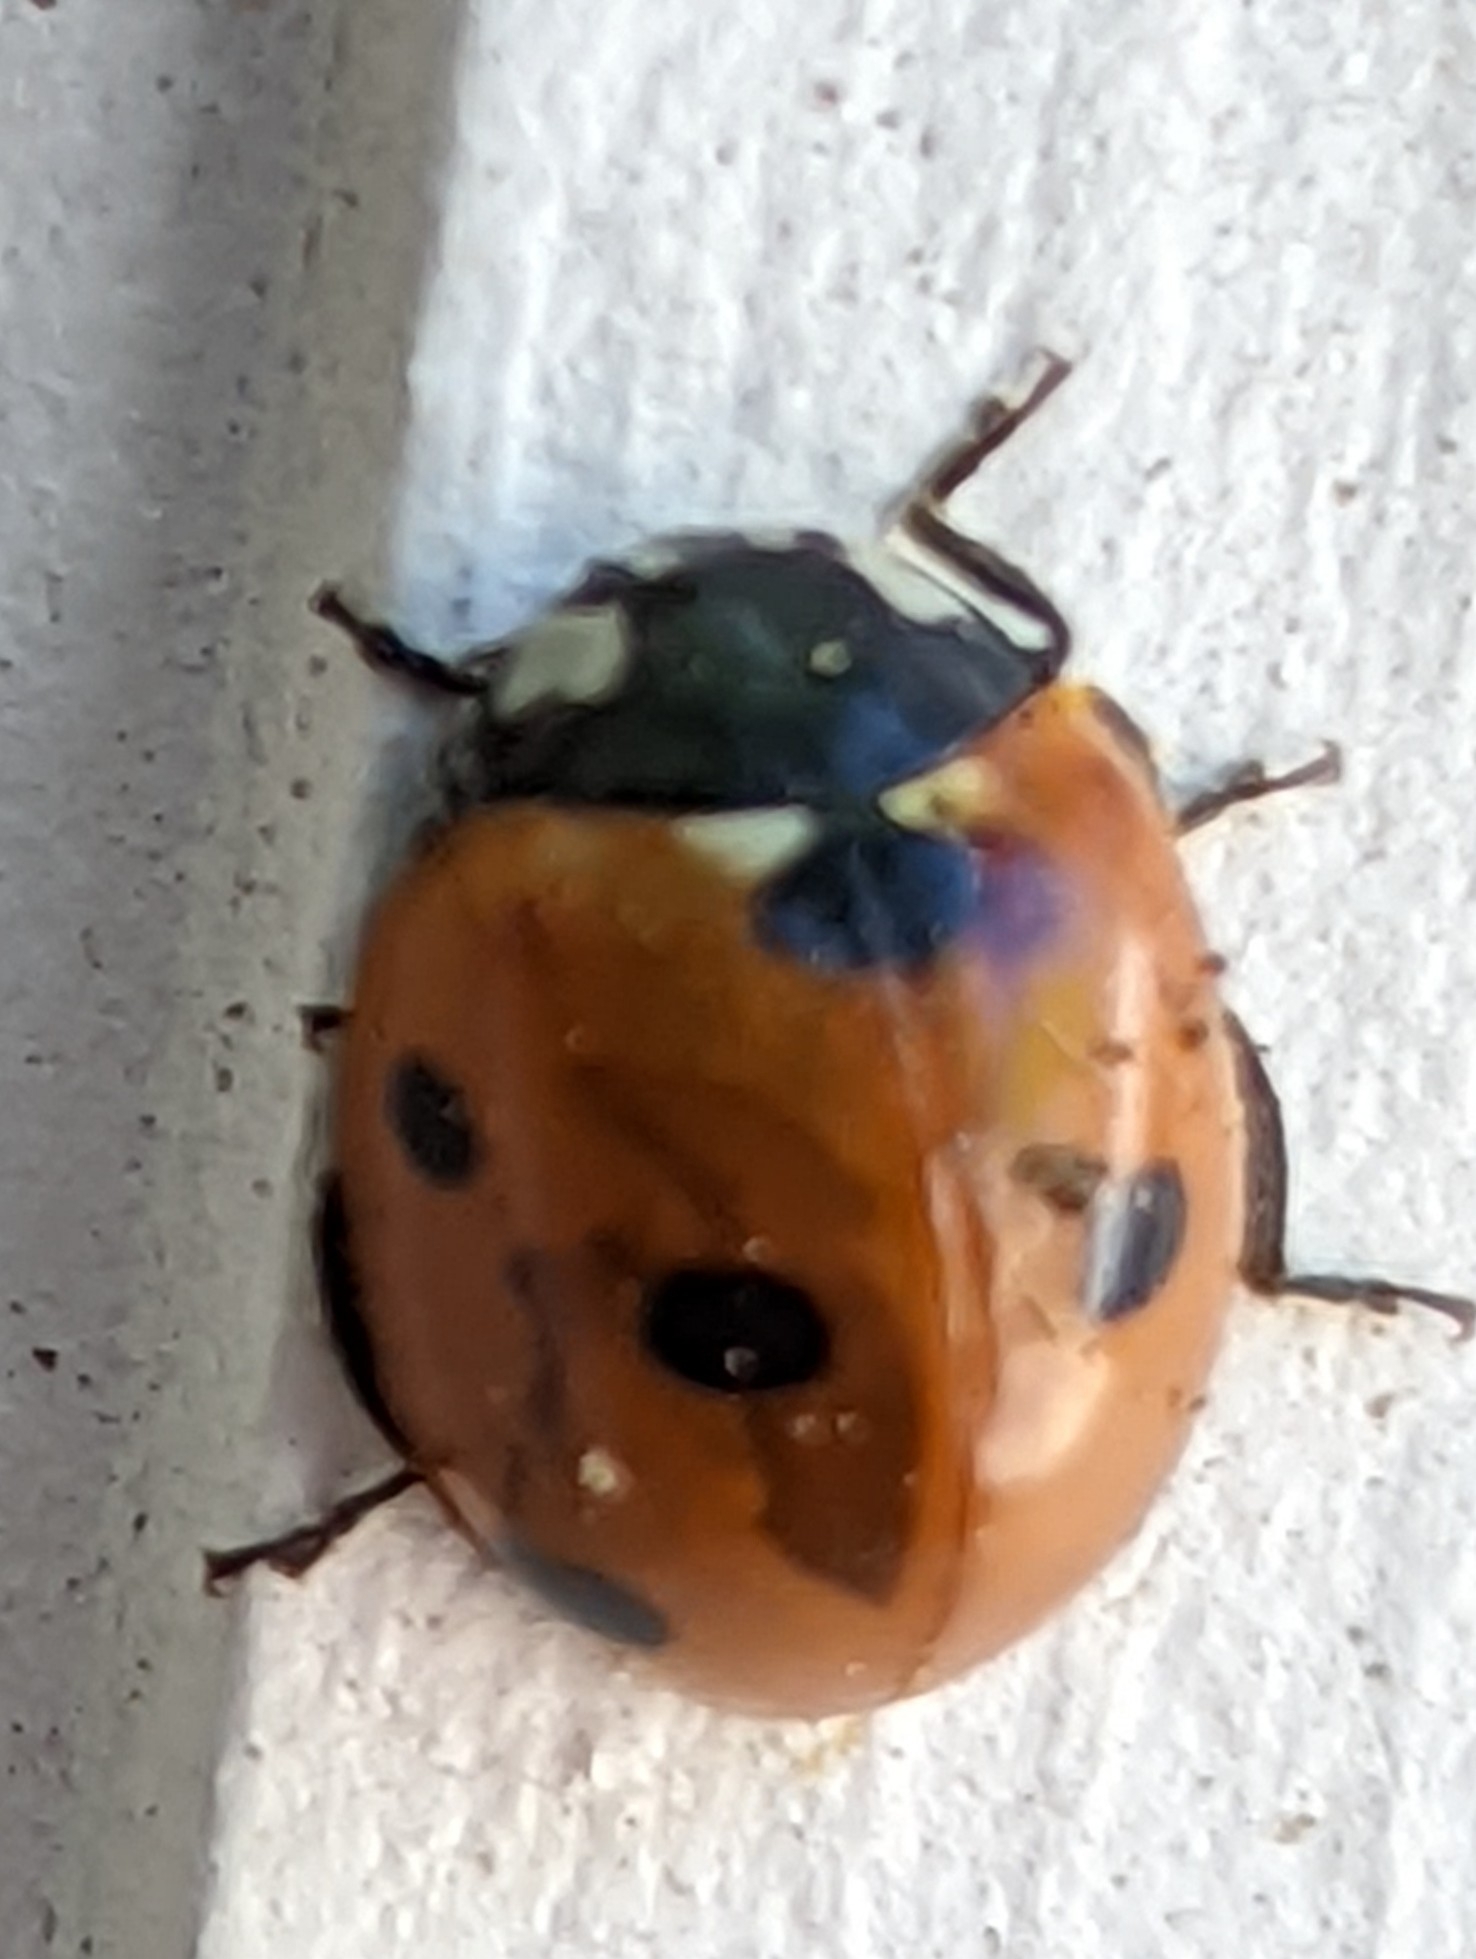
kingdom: Animalia
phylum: Arthropoda
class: Insecta
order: Coleoptera
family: Coccinellidae
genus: Coccinella
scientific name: Coccinella septempunctata
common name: Sevenspotted lady beetle
